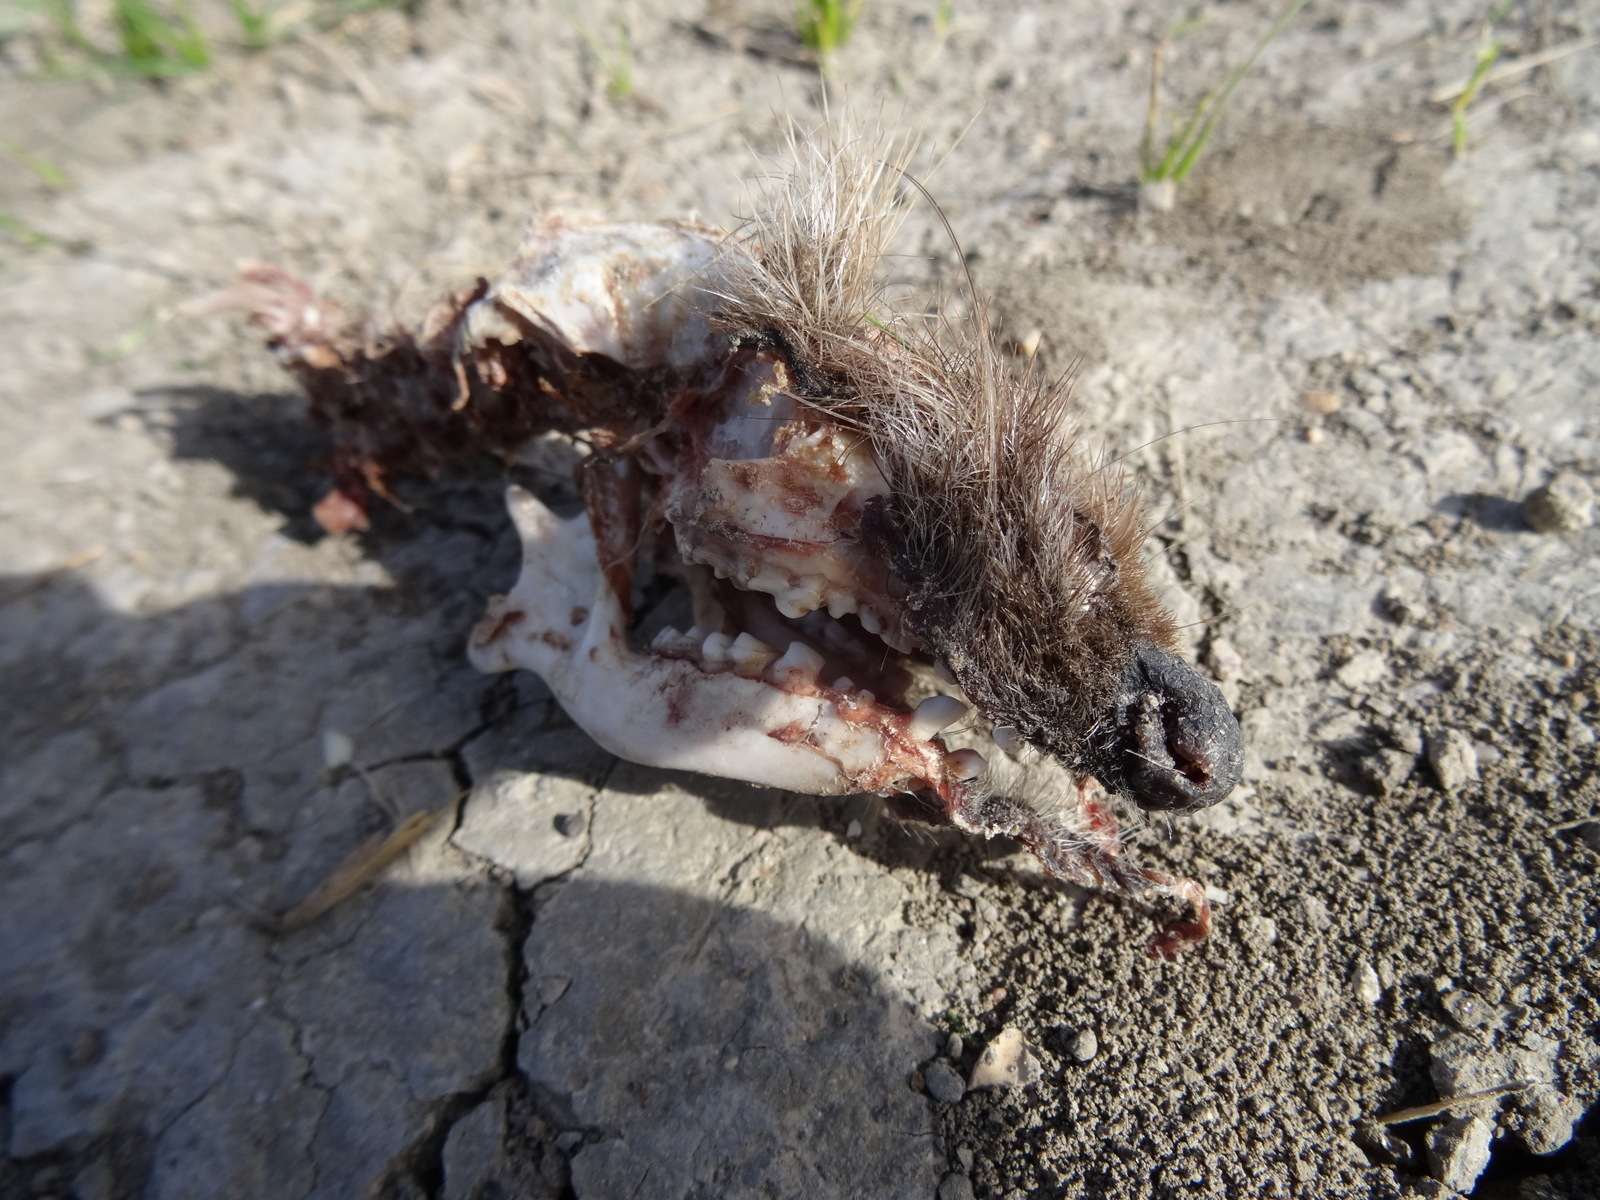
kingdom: Animalia
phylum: Chordata
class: Mammalia
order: Erinaceomorpha
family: Erinaceidae
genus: Erinaceus
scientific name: Erinaceus europaeus
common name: West european hedgehog
